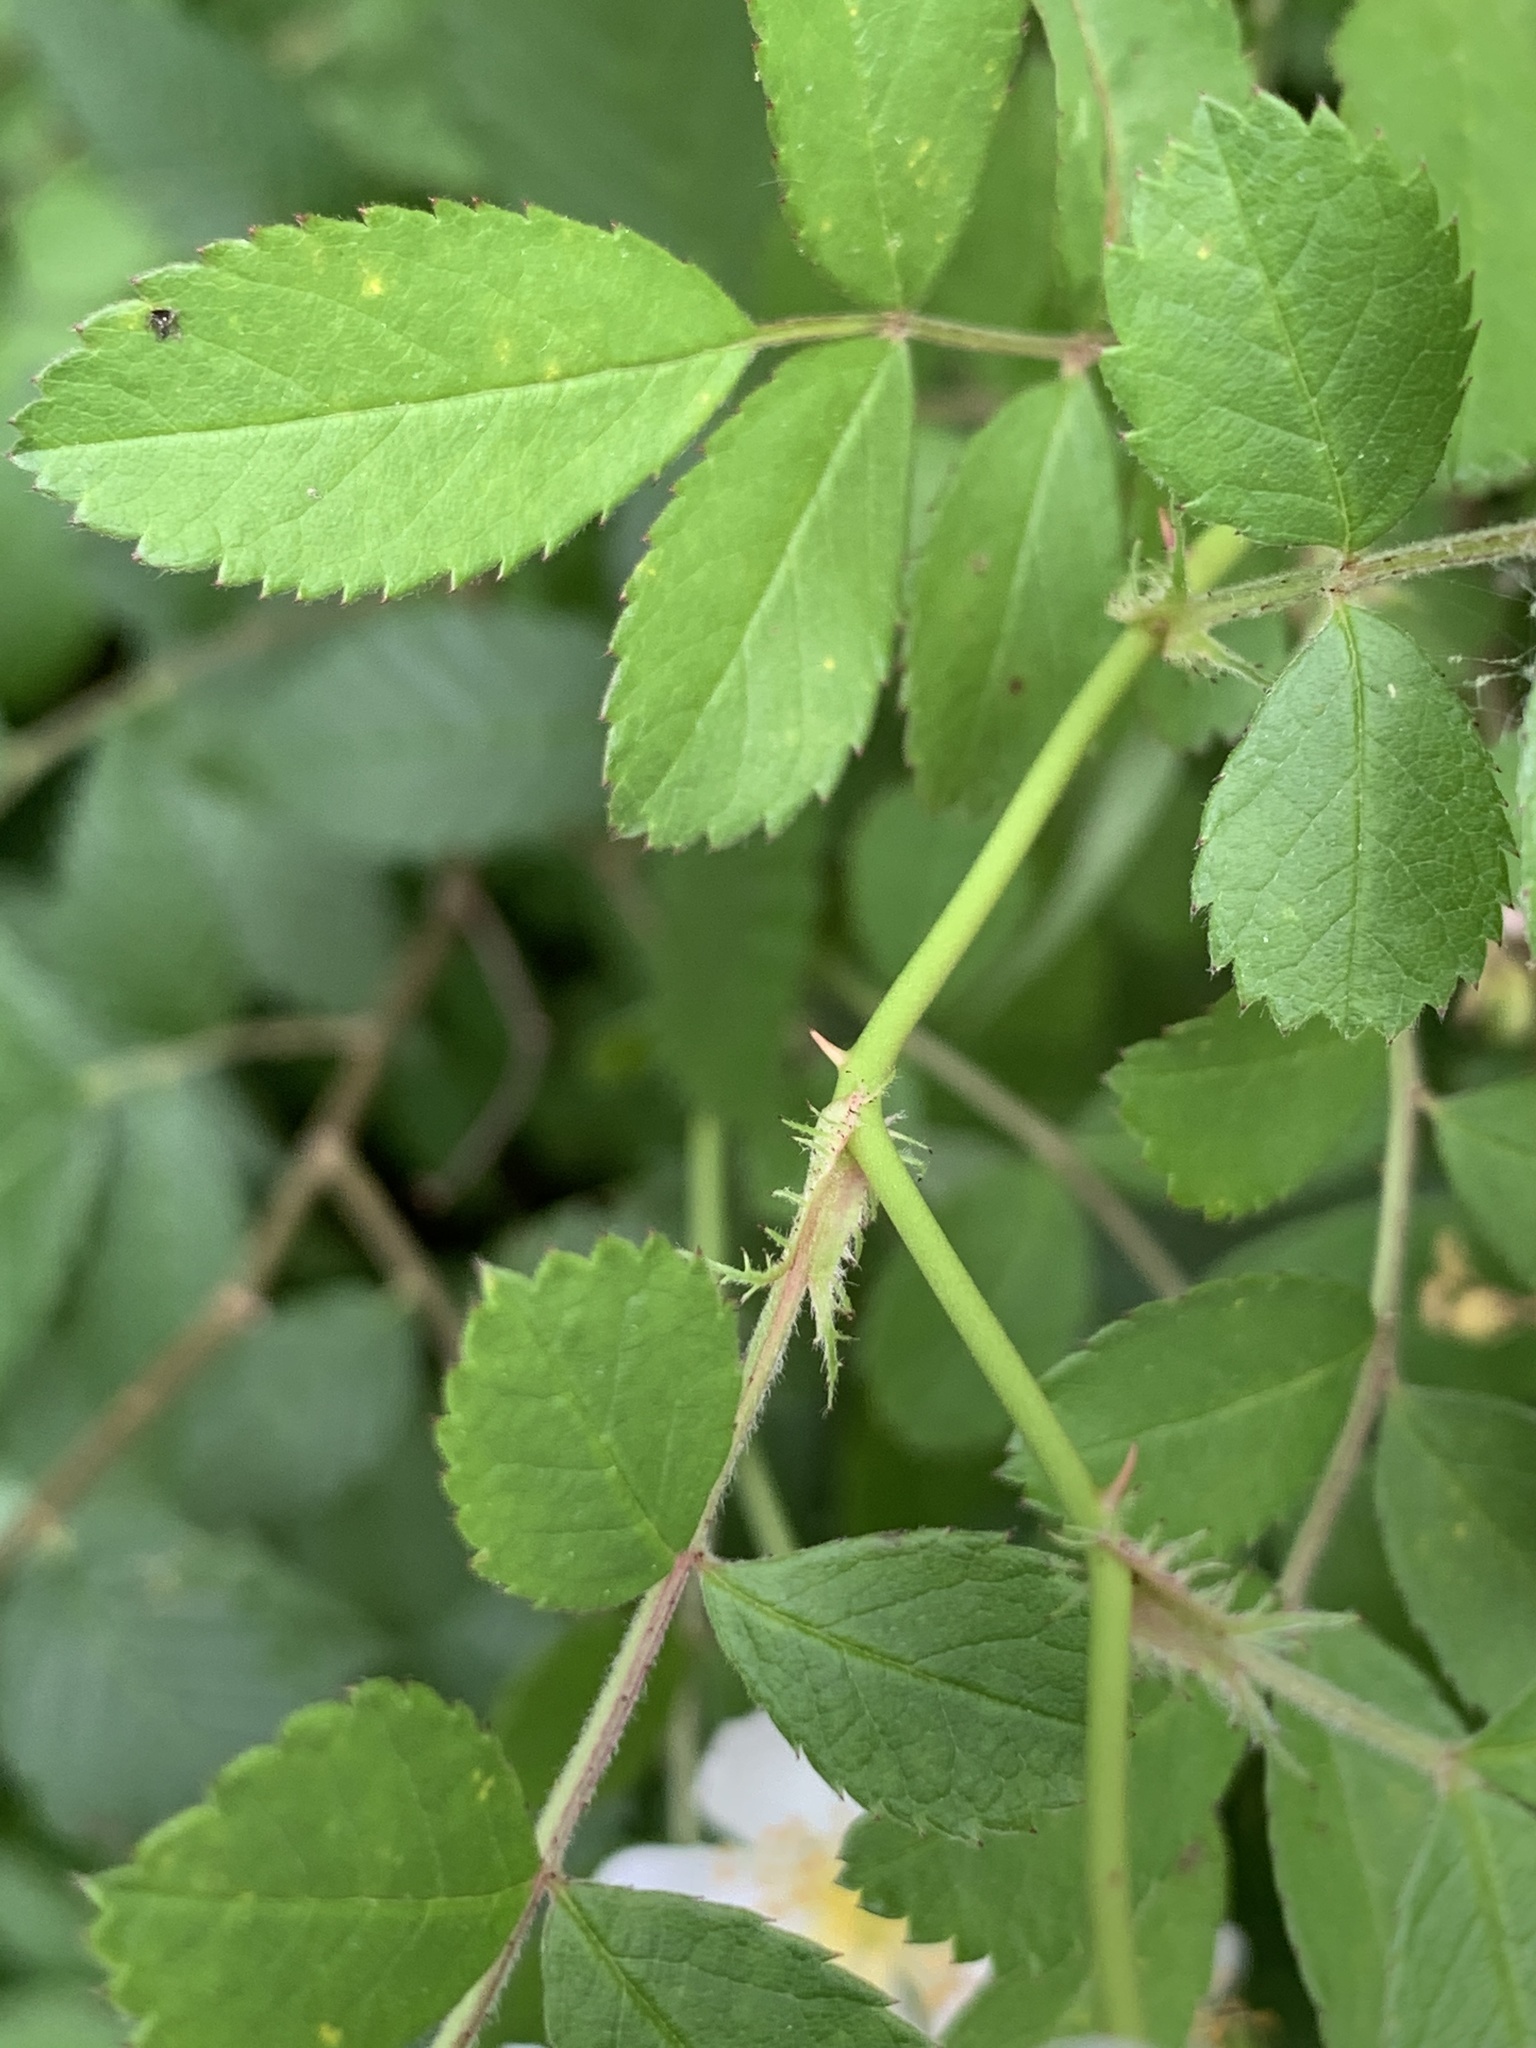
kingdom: Plantae
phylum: Tracheophyta
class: Magnoliopsida
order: Rosales
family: Rosaceae
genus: Rosa
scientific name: Rosa multiflora
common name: Multiflora rose
